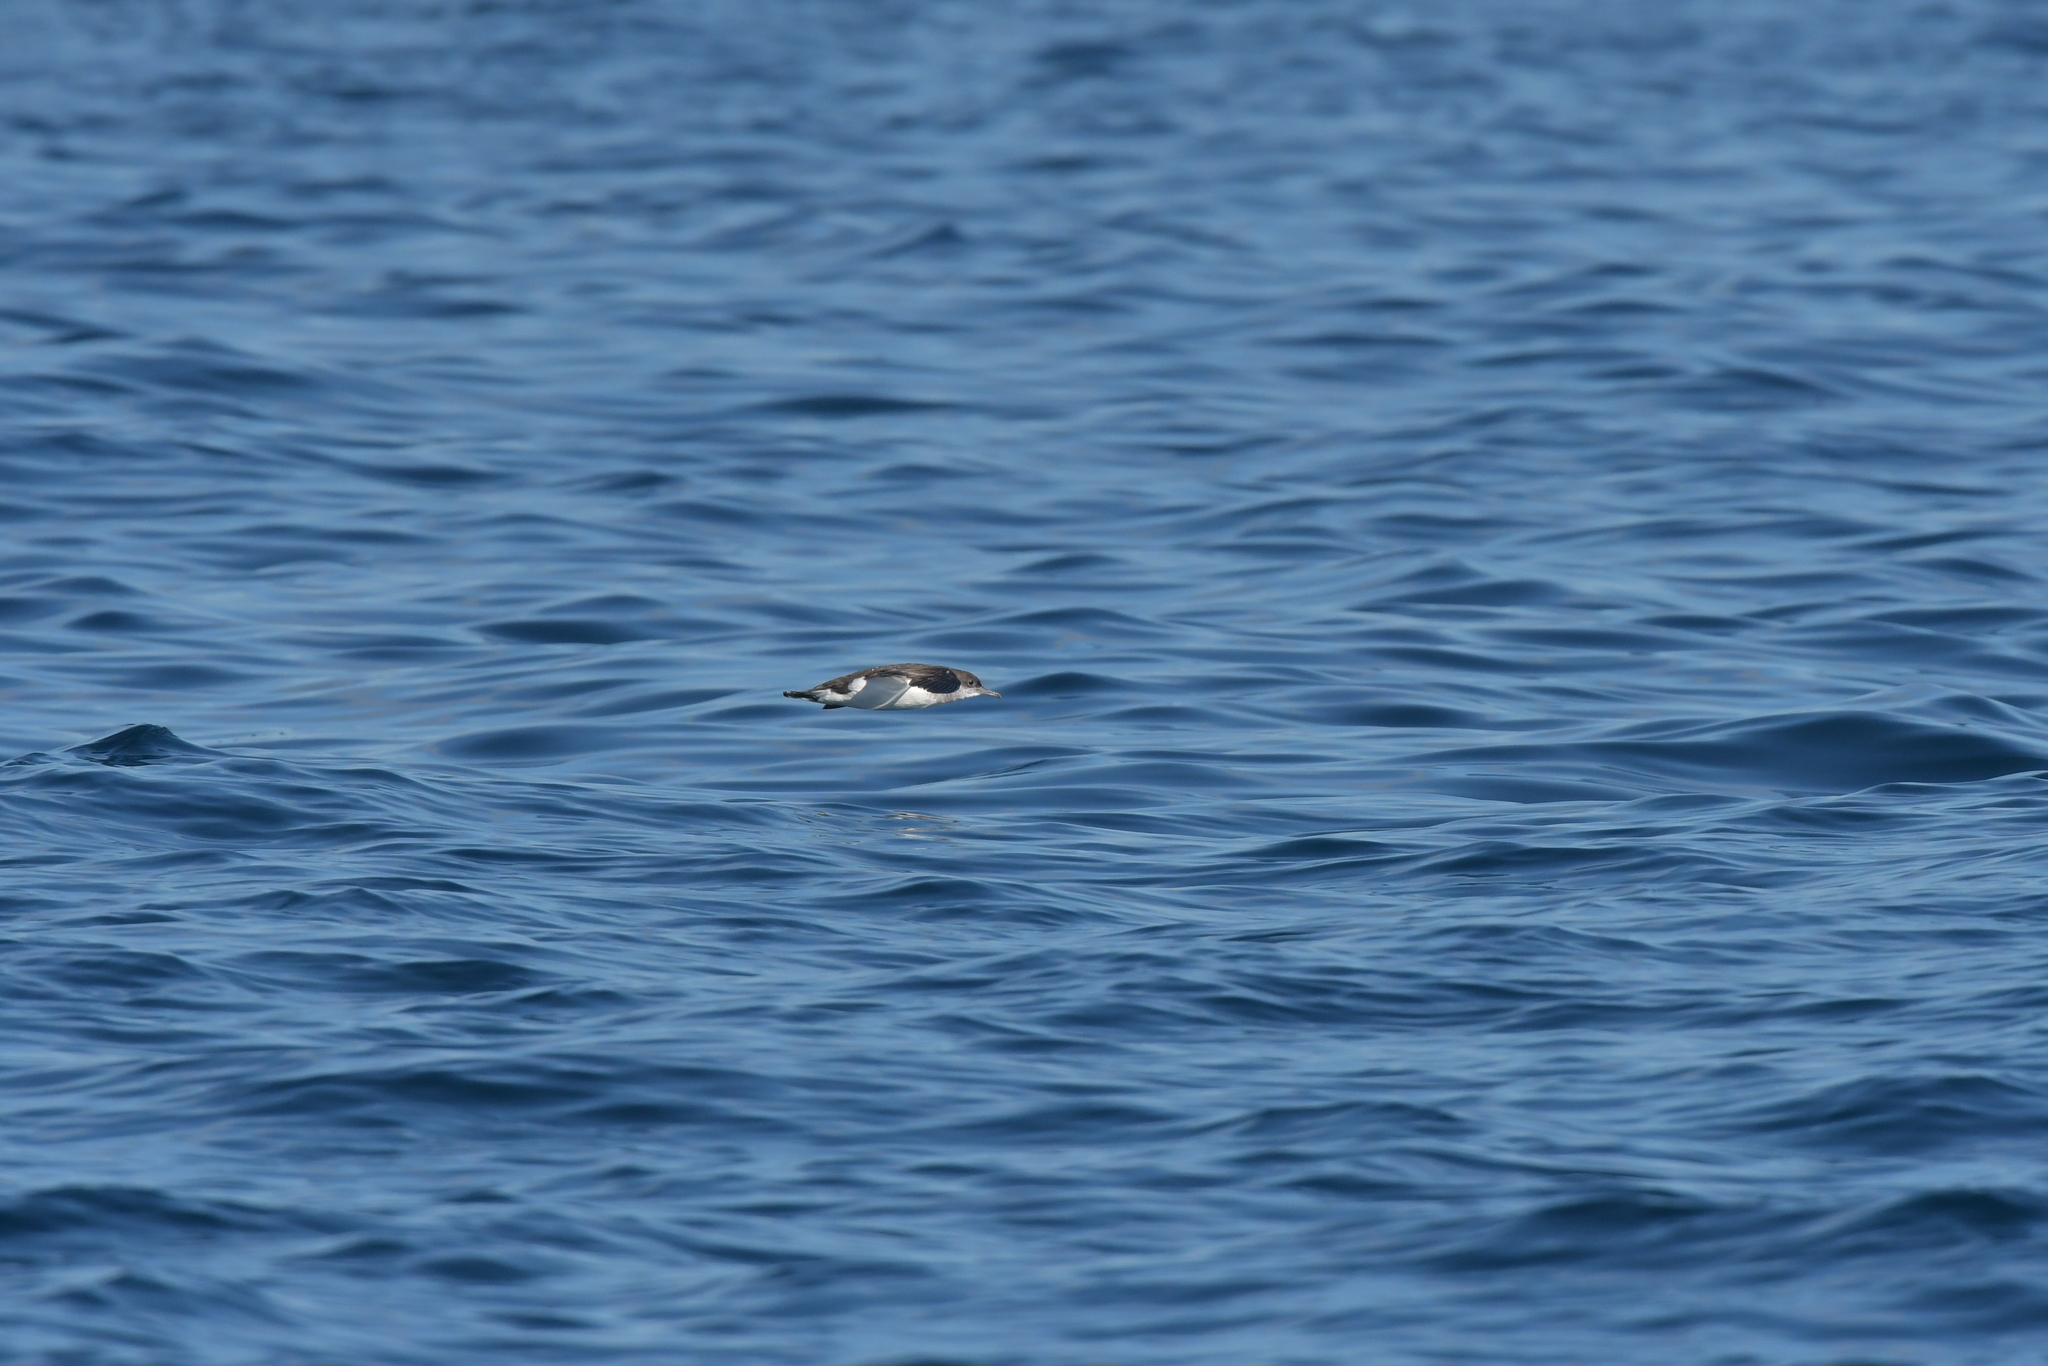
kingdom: Animalia
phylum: Chordata
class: Aves
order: Procellariiformes
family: Procellariidae
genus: Puffinus
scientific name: Puffinus gavia
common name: Fluttering shearwater
